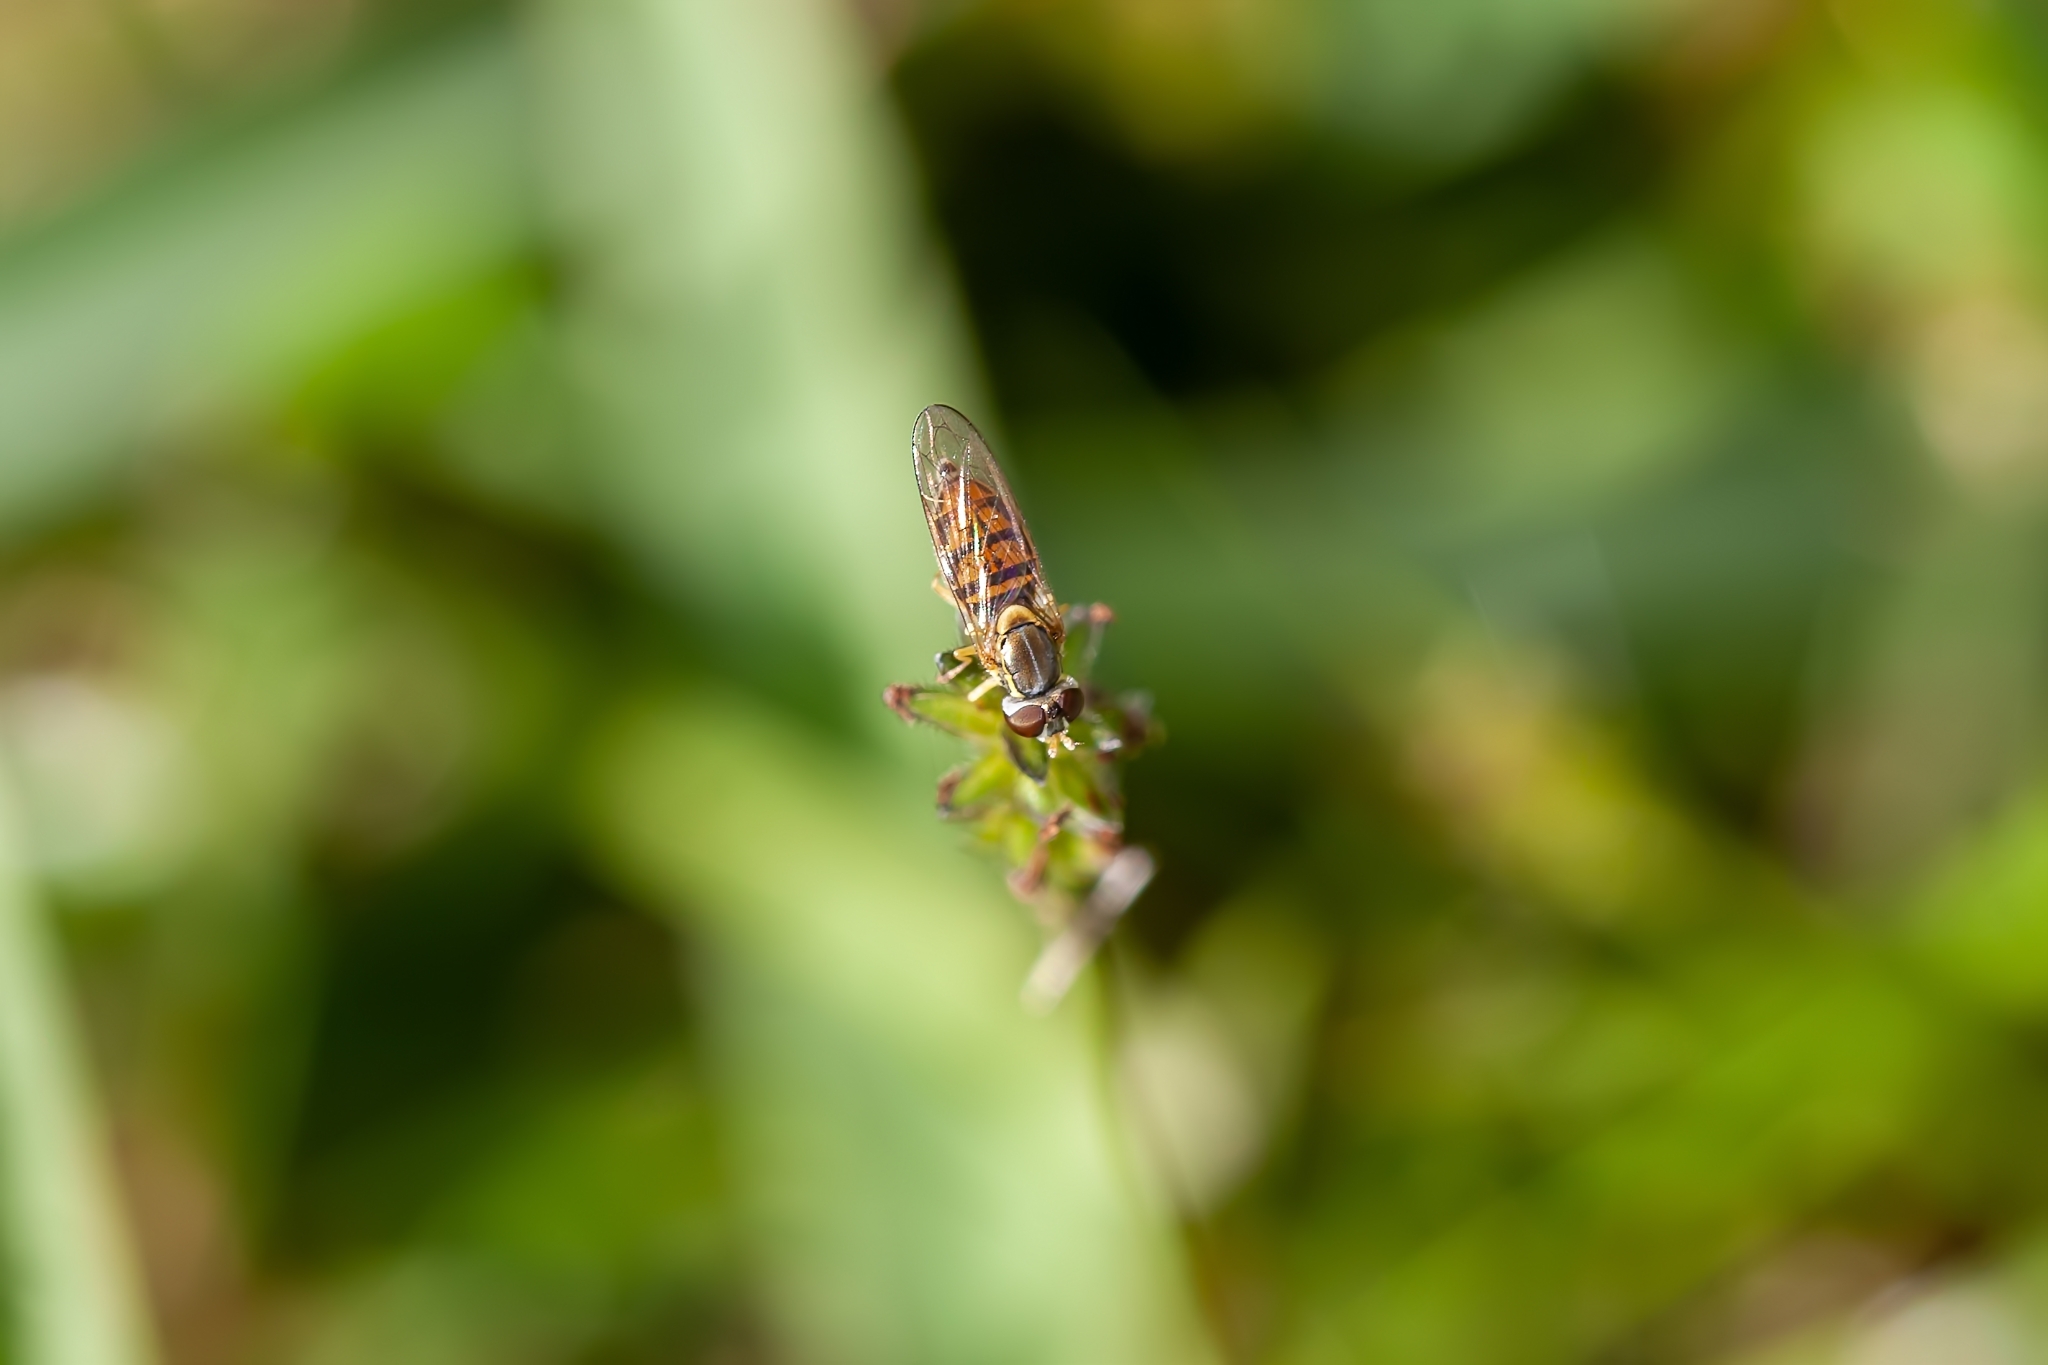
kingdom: Animalia
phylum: Arthropoda
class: Insecta
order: Diptera
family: Syrphidae
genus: Toxomerus
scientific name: Toxomerus marginatus
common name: Syrphid fly
